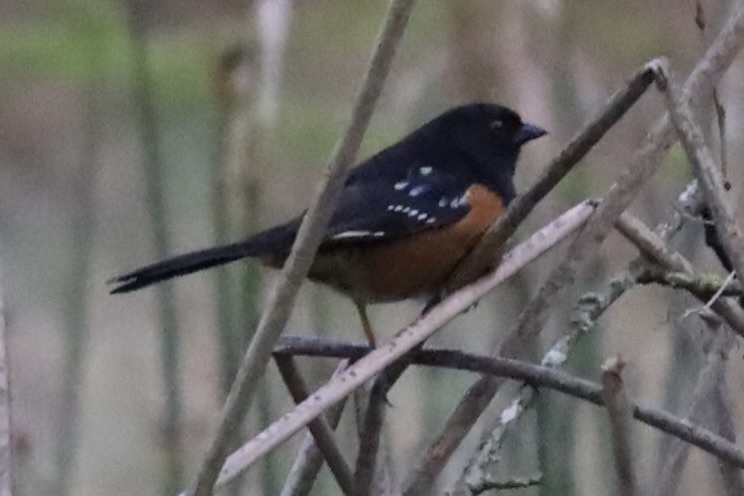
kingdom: Animalia
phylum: Chordata
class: Aves
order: Passeriformes
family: Passerellidae
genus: Pipilo
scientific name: Pipilo maculatus
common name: Spotted towhee
